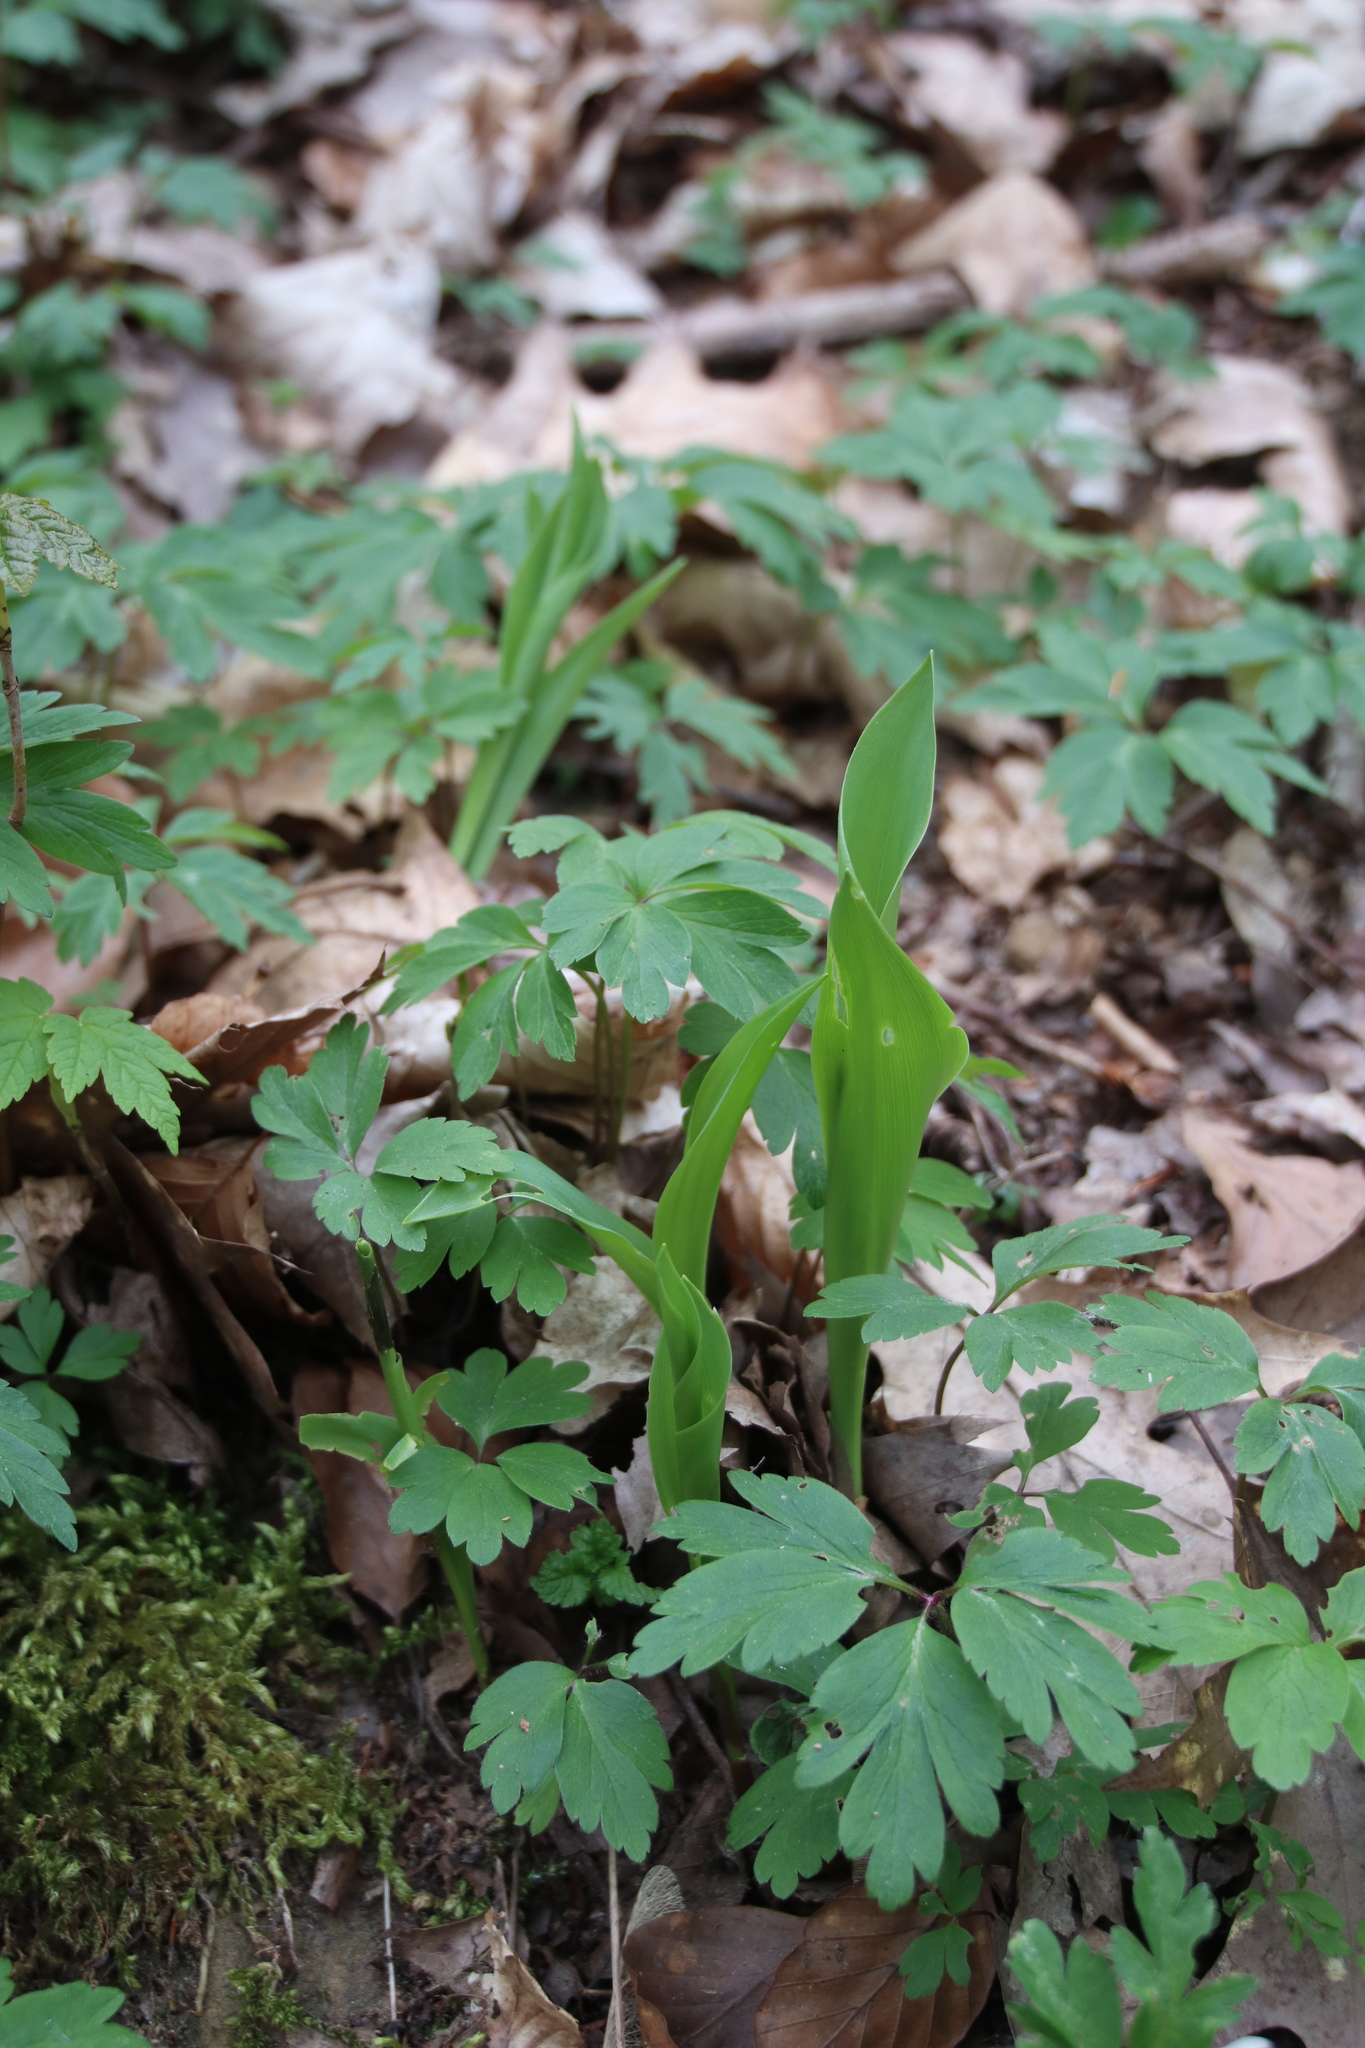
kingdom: Plantae
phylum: Tracheophyta
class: Liliopsida
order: Asparagales
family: Asparagaceae
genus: Convallaria
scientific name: Convallaria majalis
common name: Lily-of-the-valley
